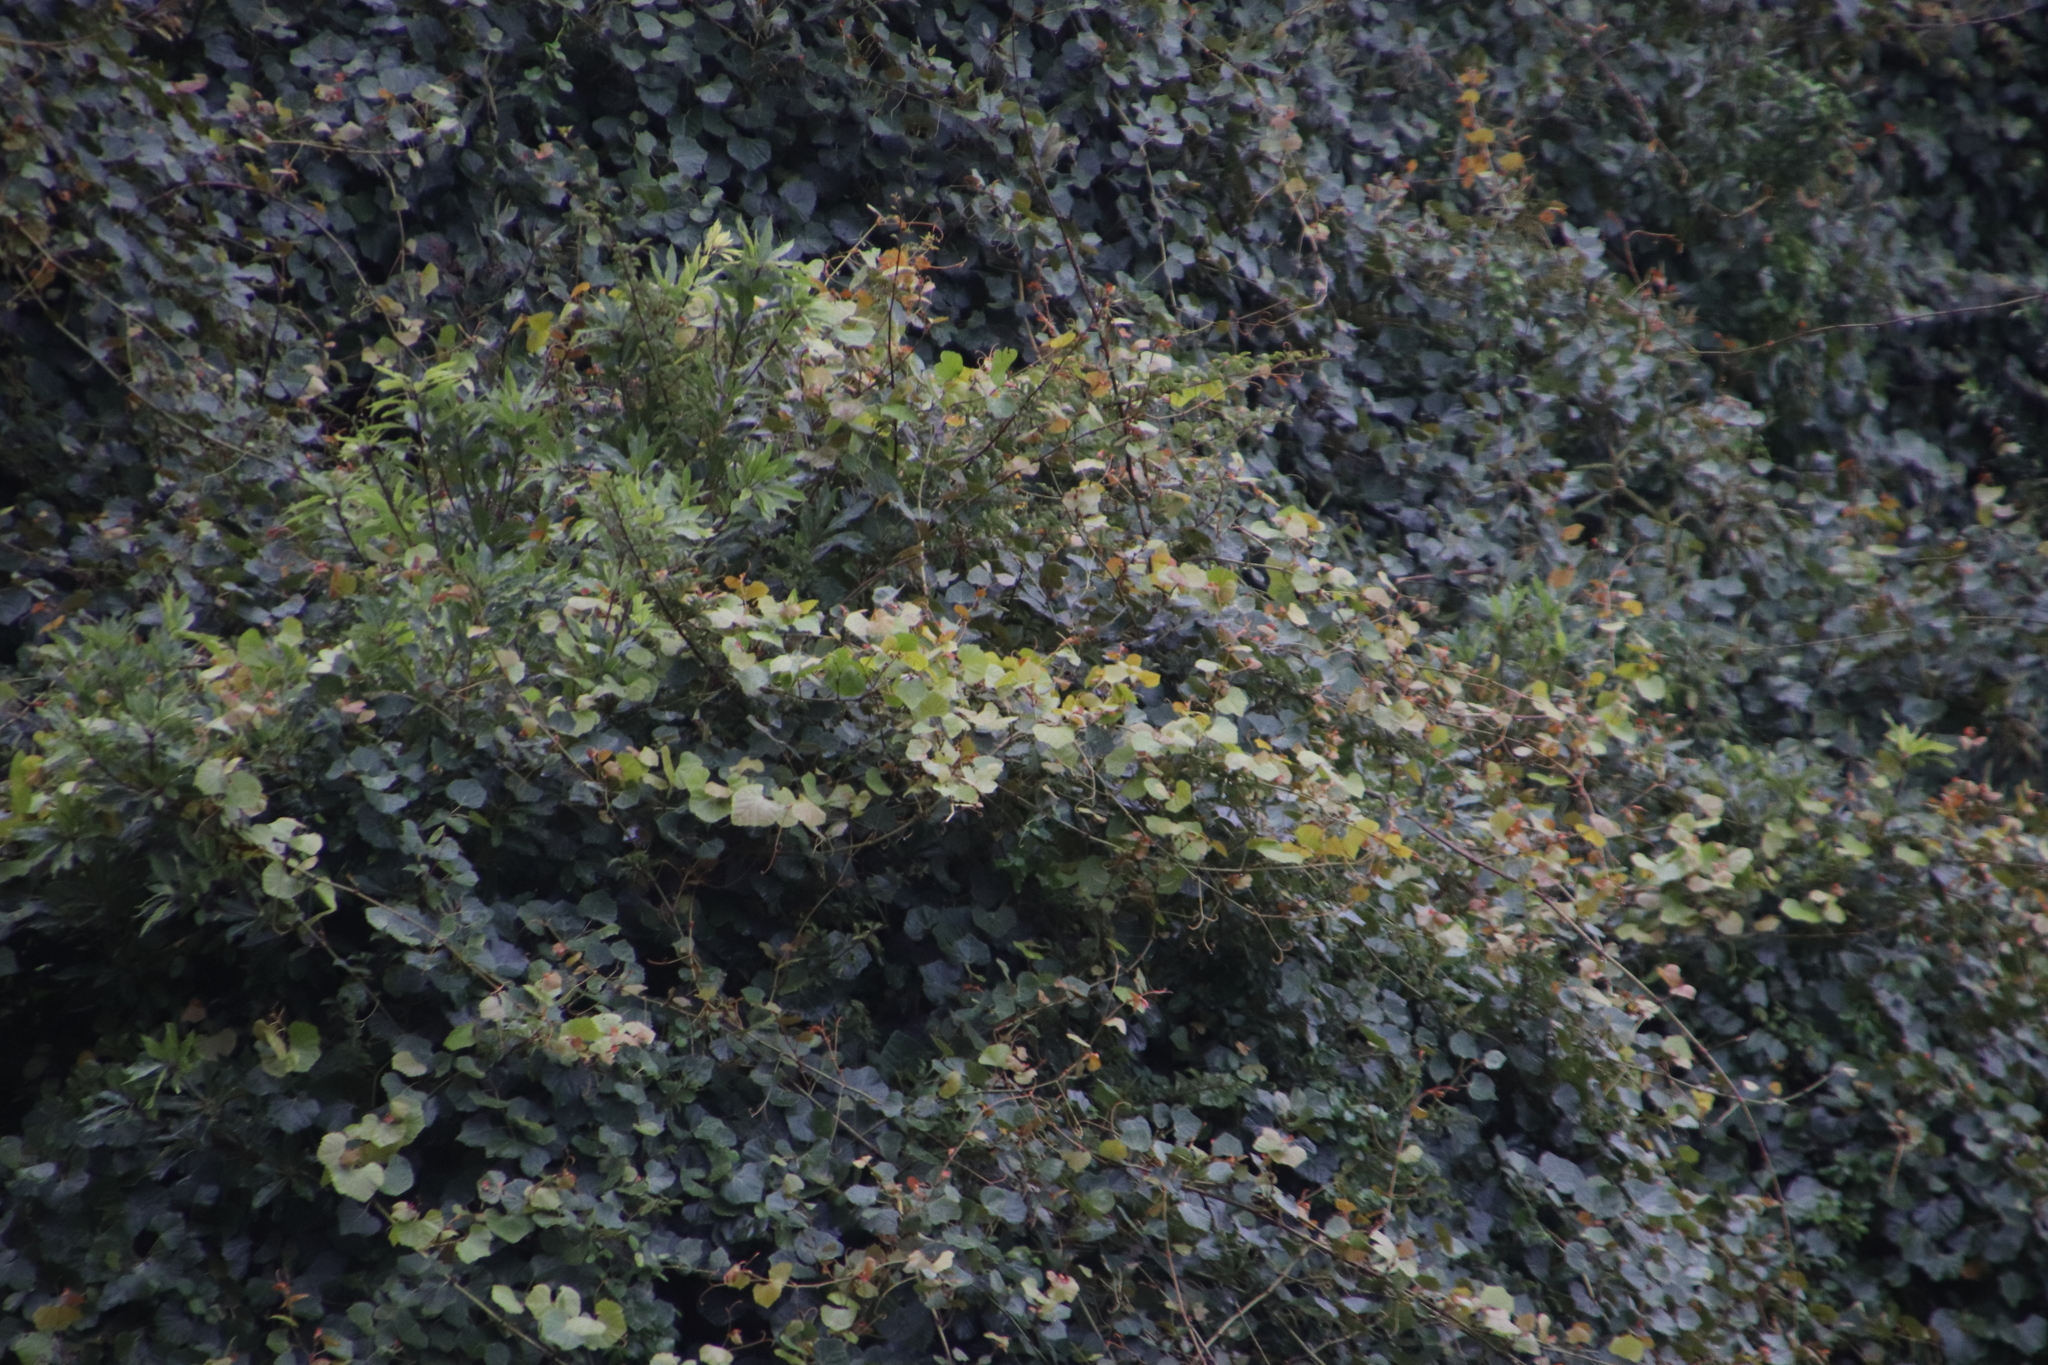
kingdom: Plantae
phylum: Tracheophyta
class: Magnoliopsida
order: Vitales
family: Vitaceae
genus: Rhoicissus
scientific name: Rhoicissus tomentosa
